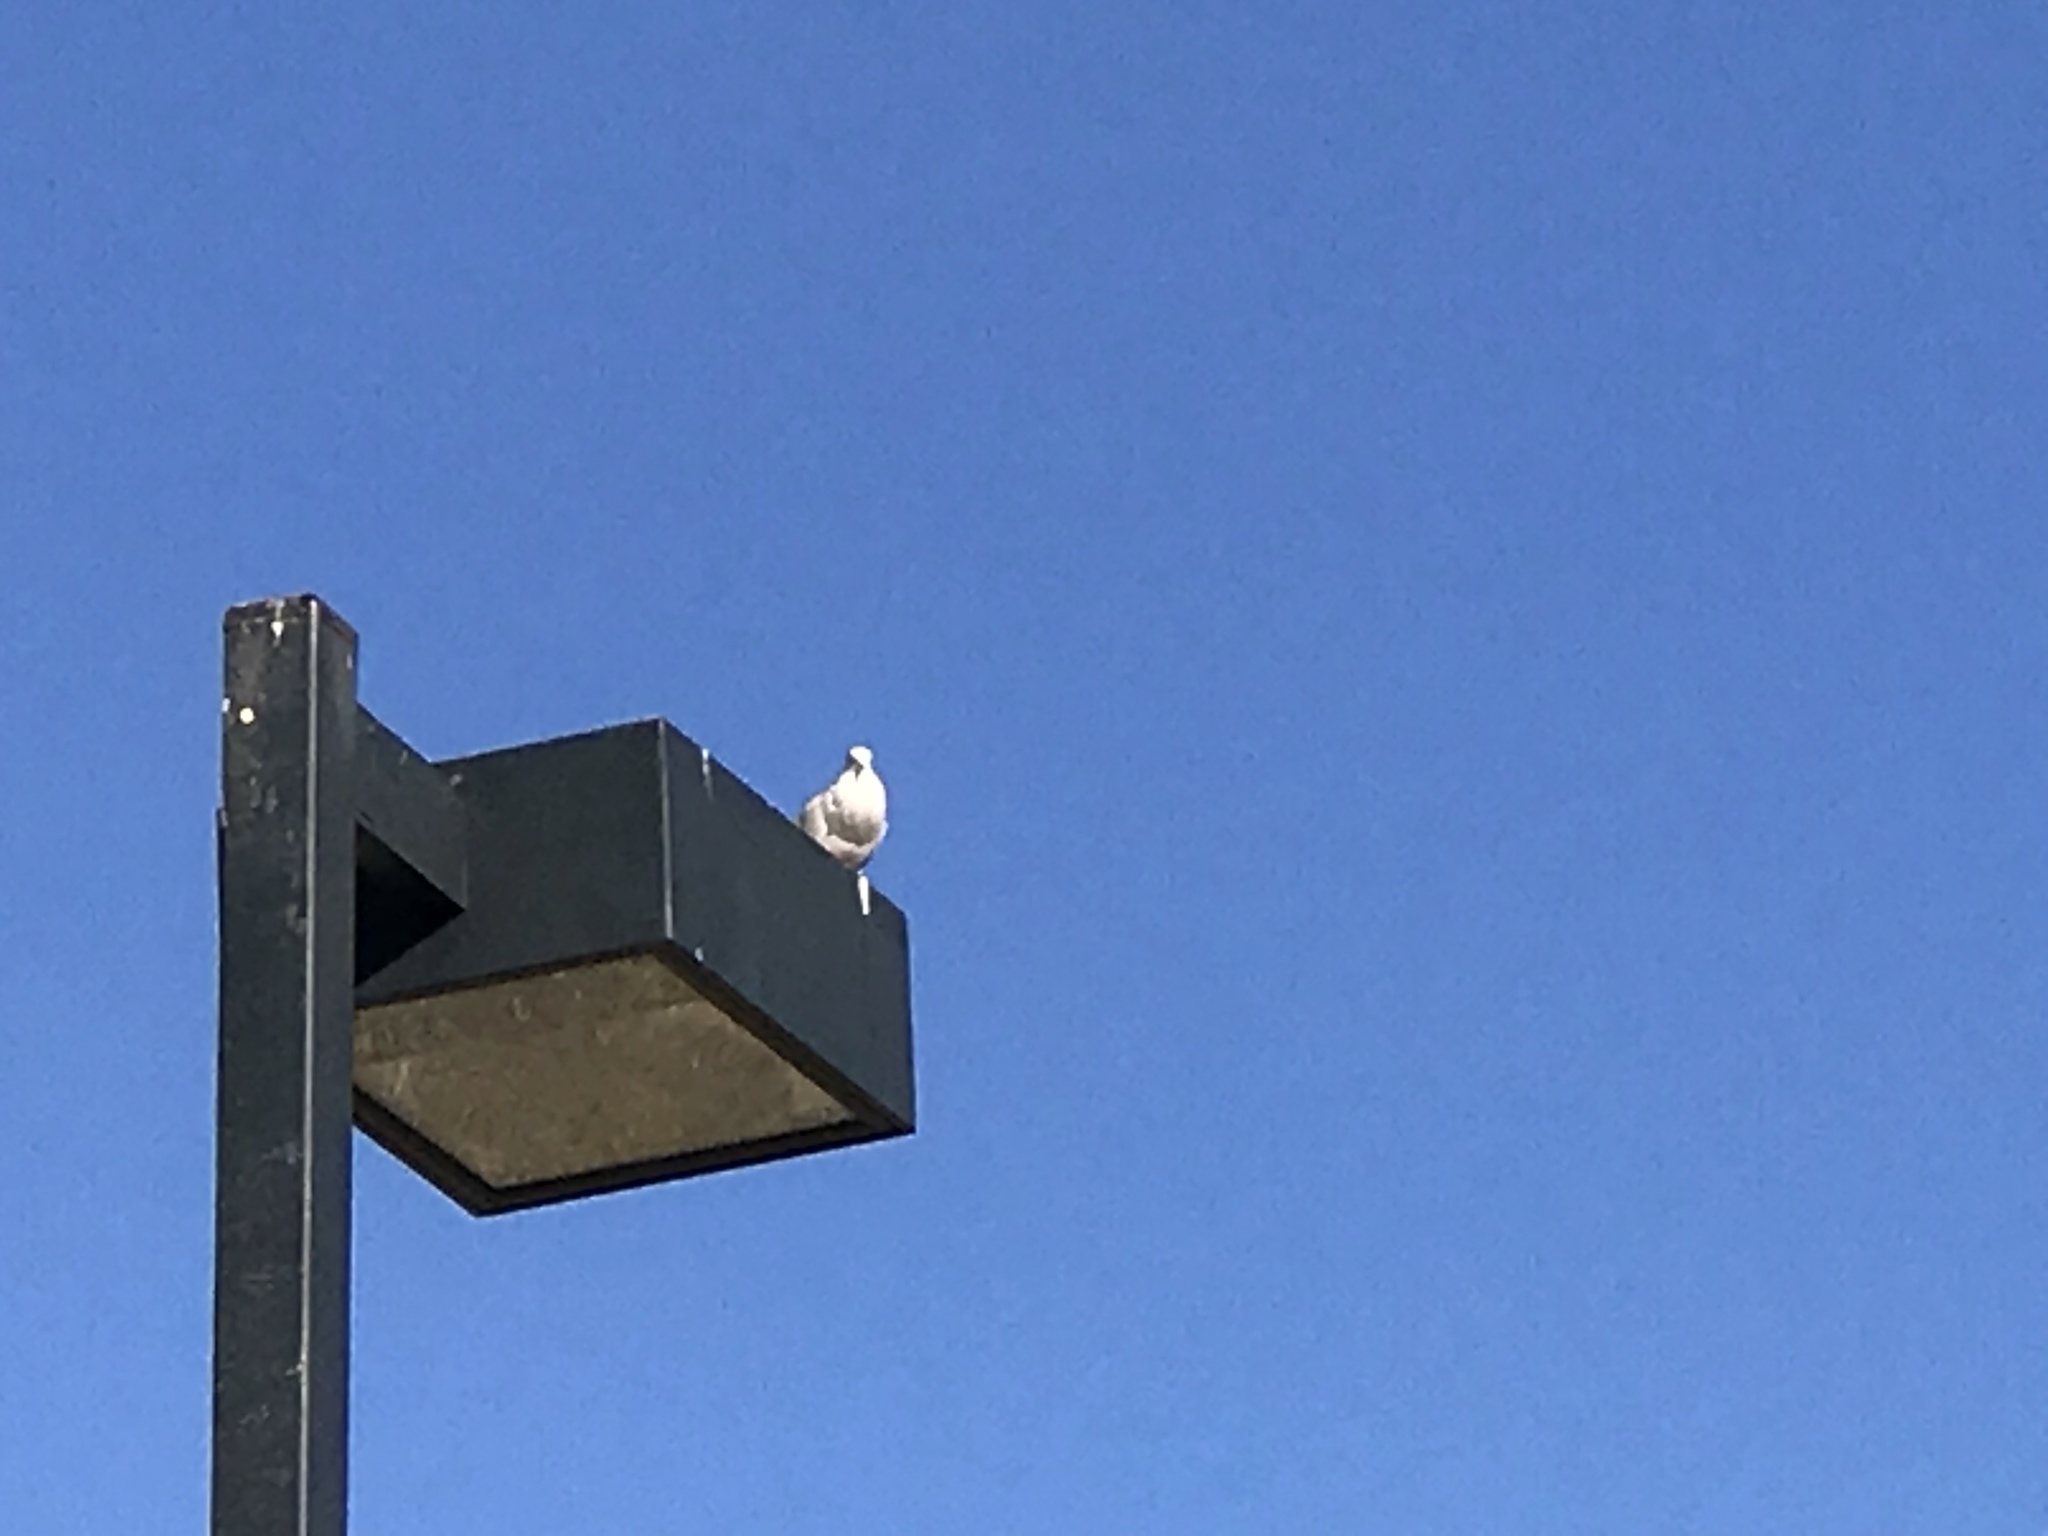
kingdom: Animalia
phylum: Chordata
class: Aves
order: Columbiformes
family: Columbidae
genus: Streptopelia
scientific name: Streptopelia decaocto
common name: Eurasian collared dove
